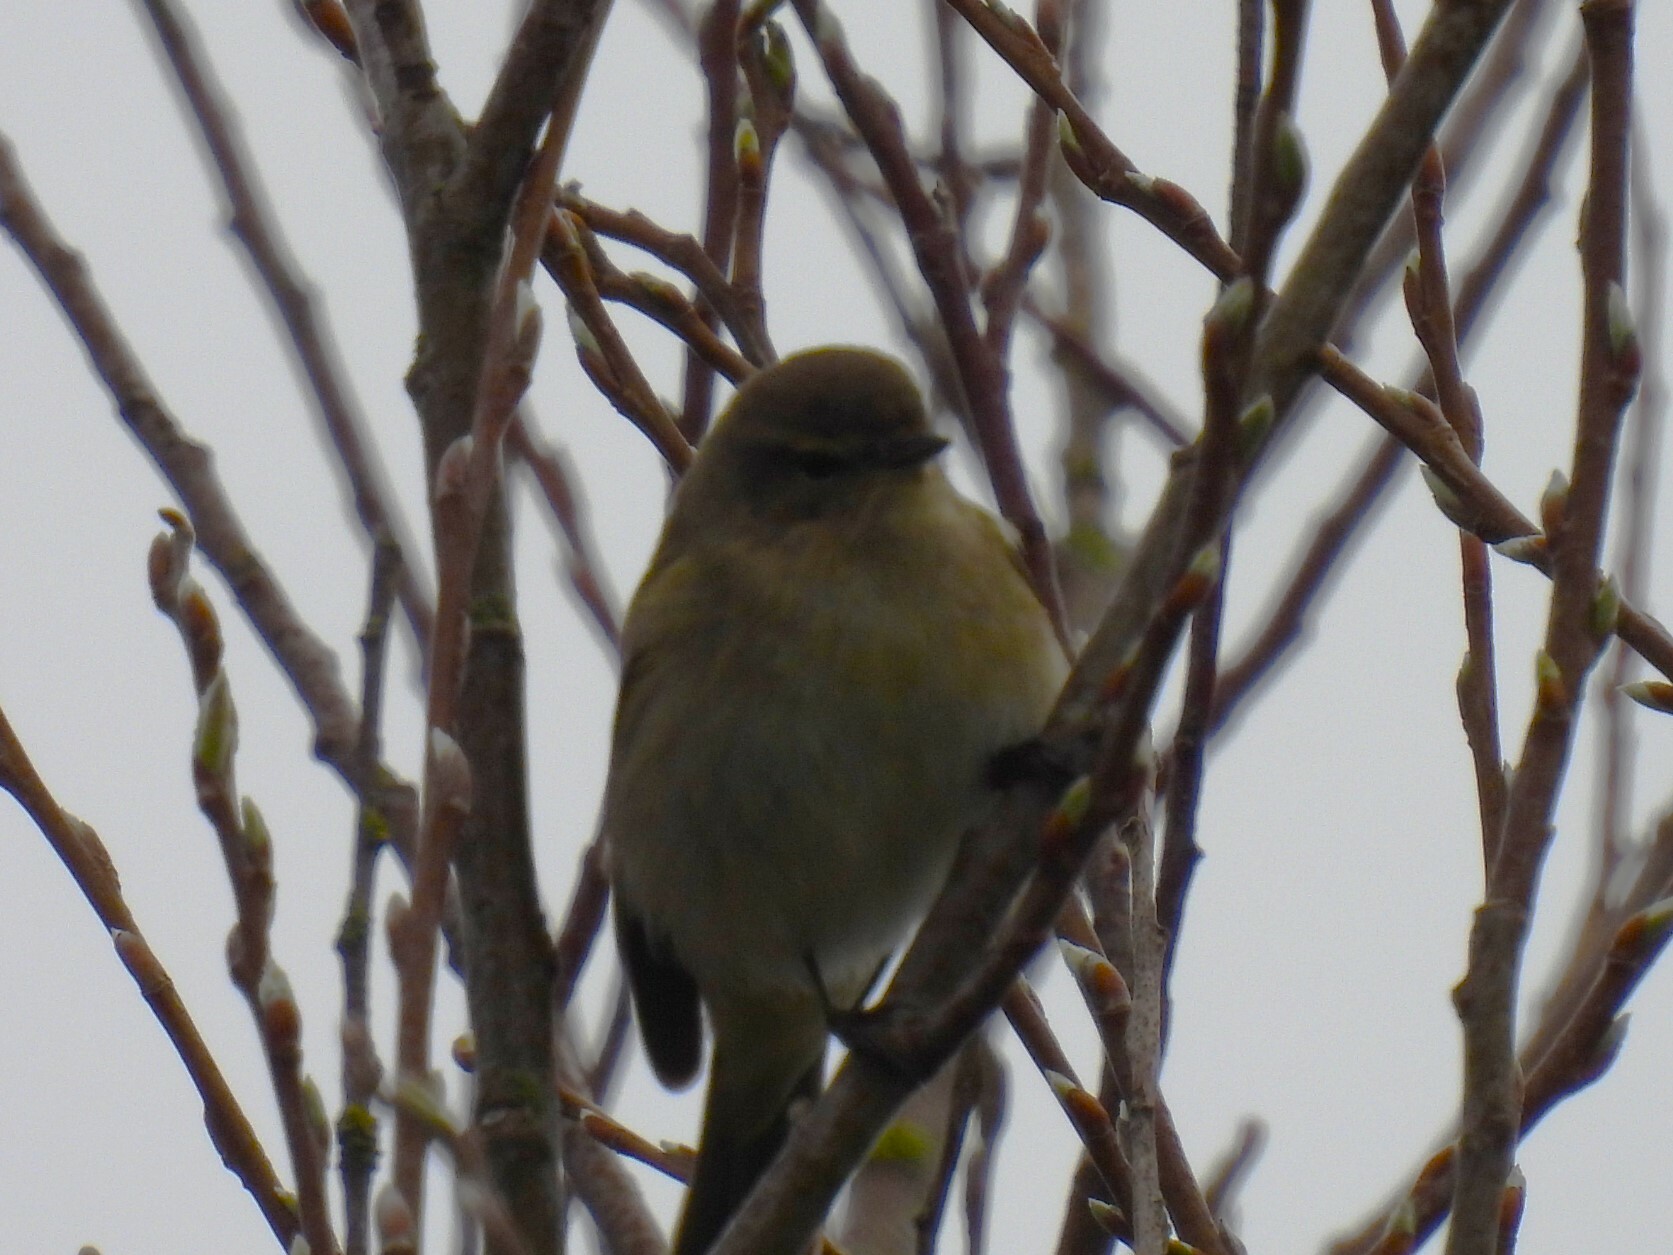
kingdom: Animalia
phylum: Chordata
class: Aves
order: Passeriformes
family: Phylloscopidae
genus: Phylloscopus
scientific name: Phylloscopus collybita
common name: Common chiffchaff
